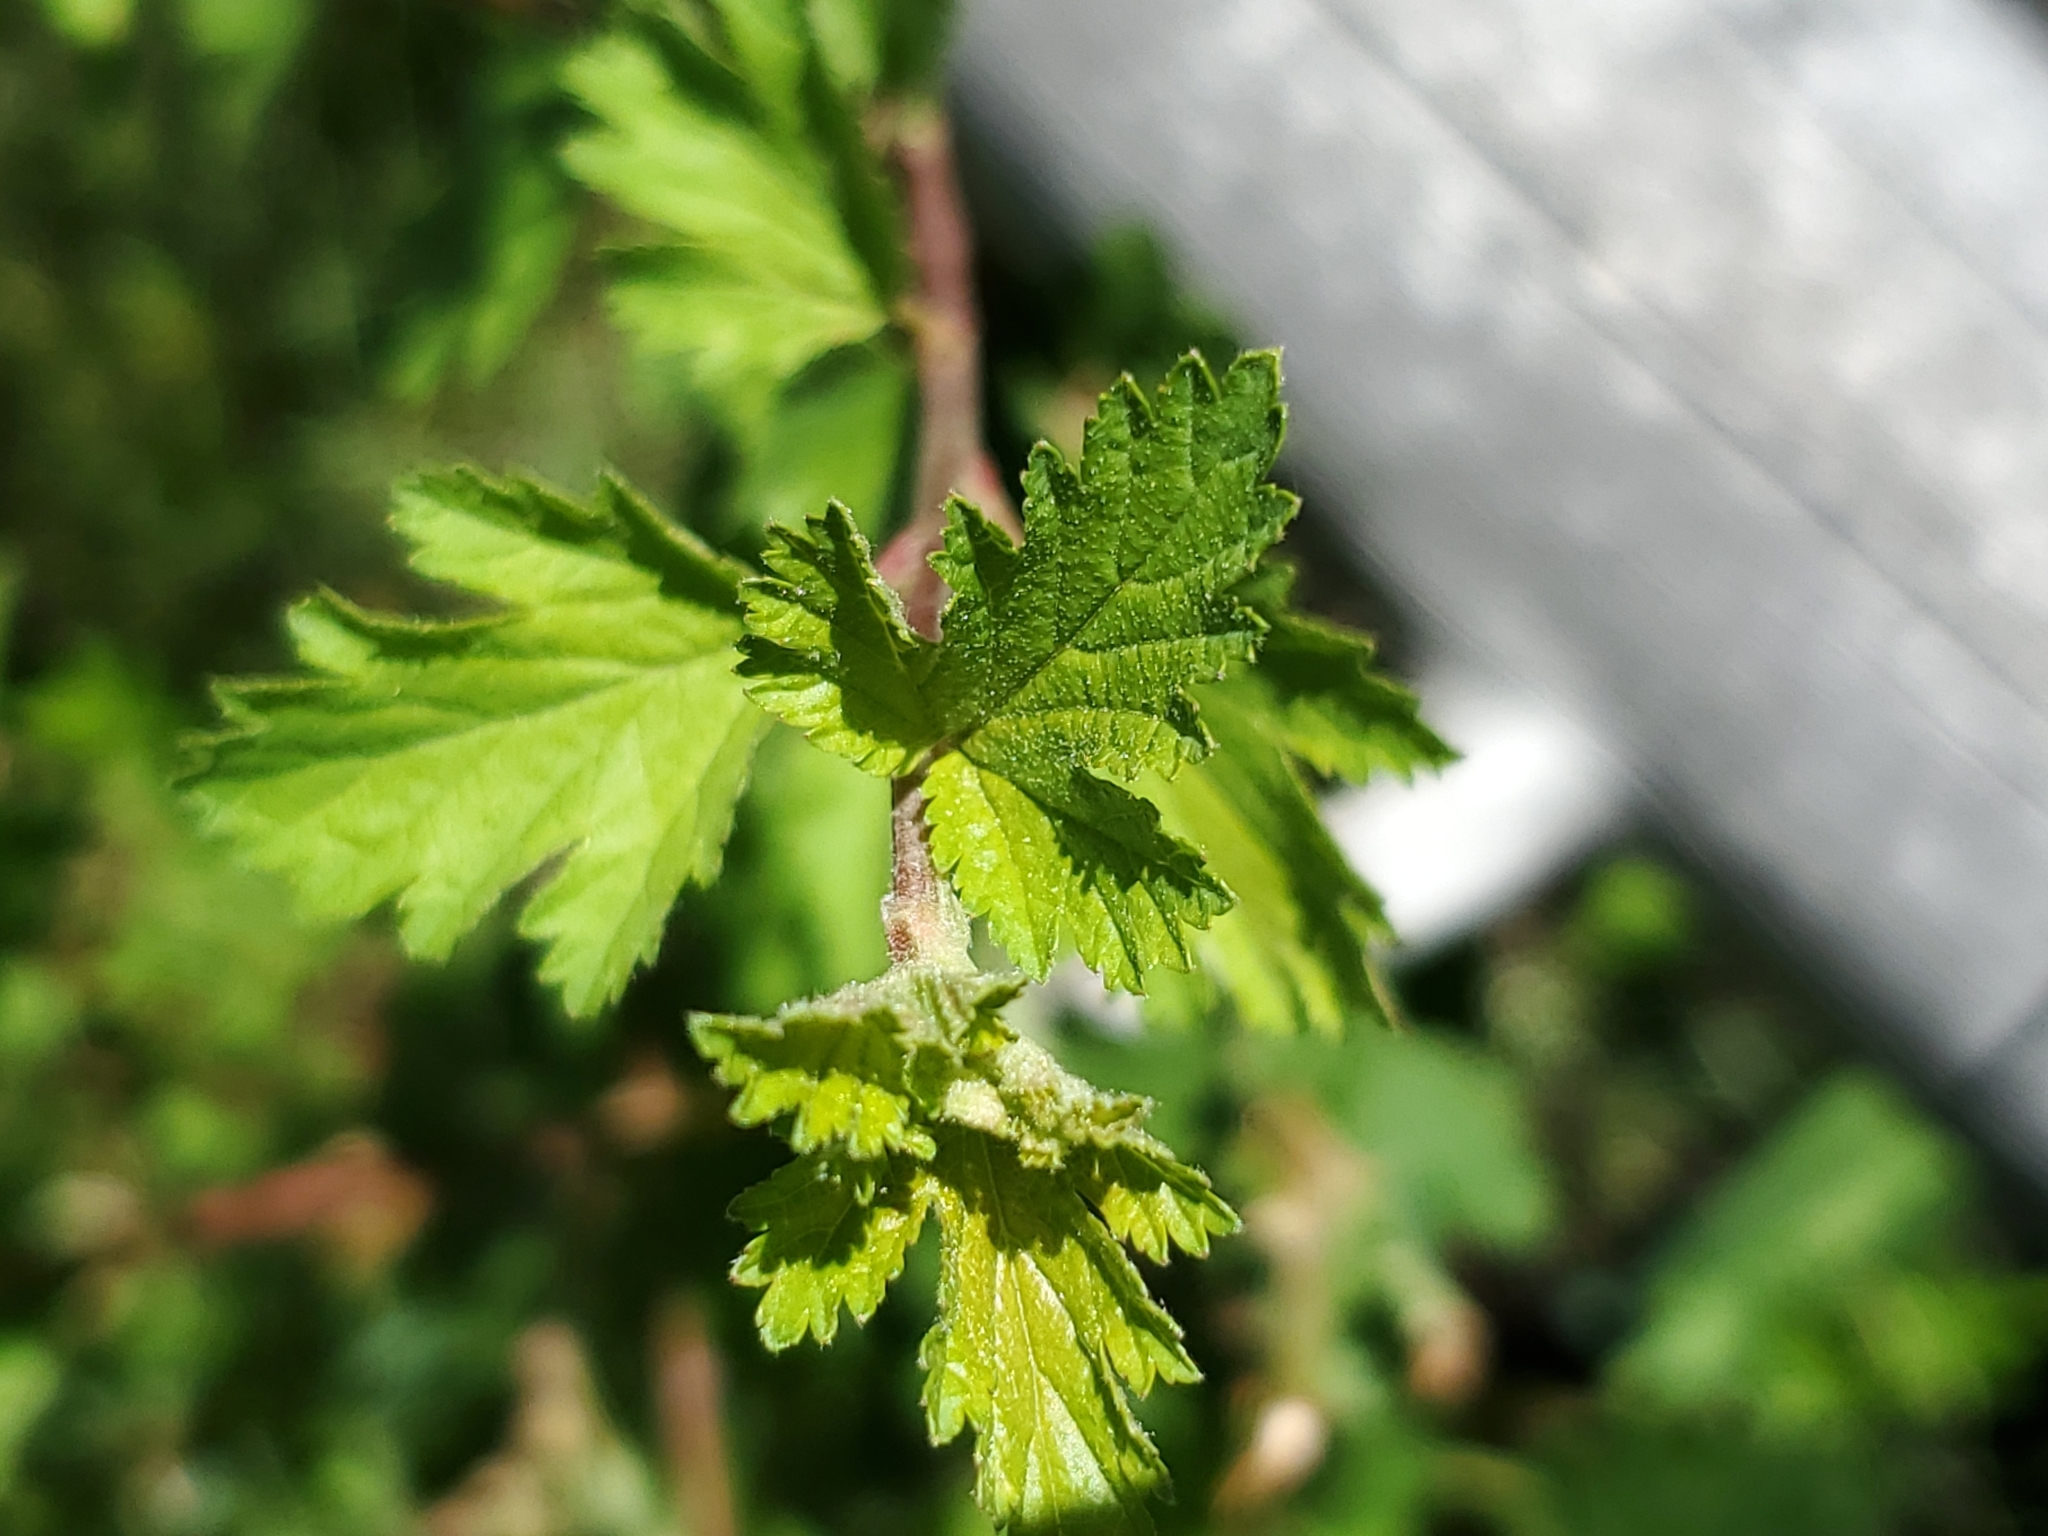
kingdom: Plantae
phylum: Tracheophyta
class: Magnoliopsida
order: Rosales
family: Rosaceae
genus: Physocarpus
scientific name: Physocarpus monogynus
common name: Mountain ninebark
